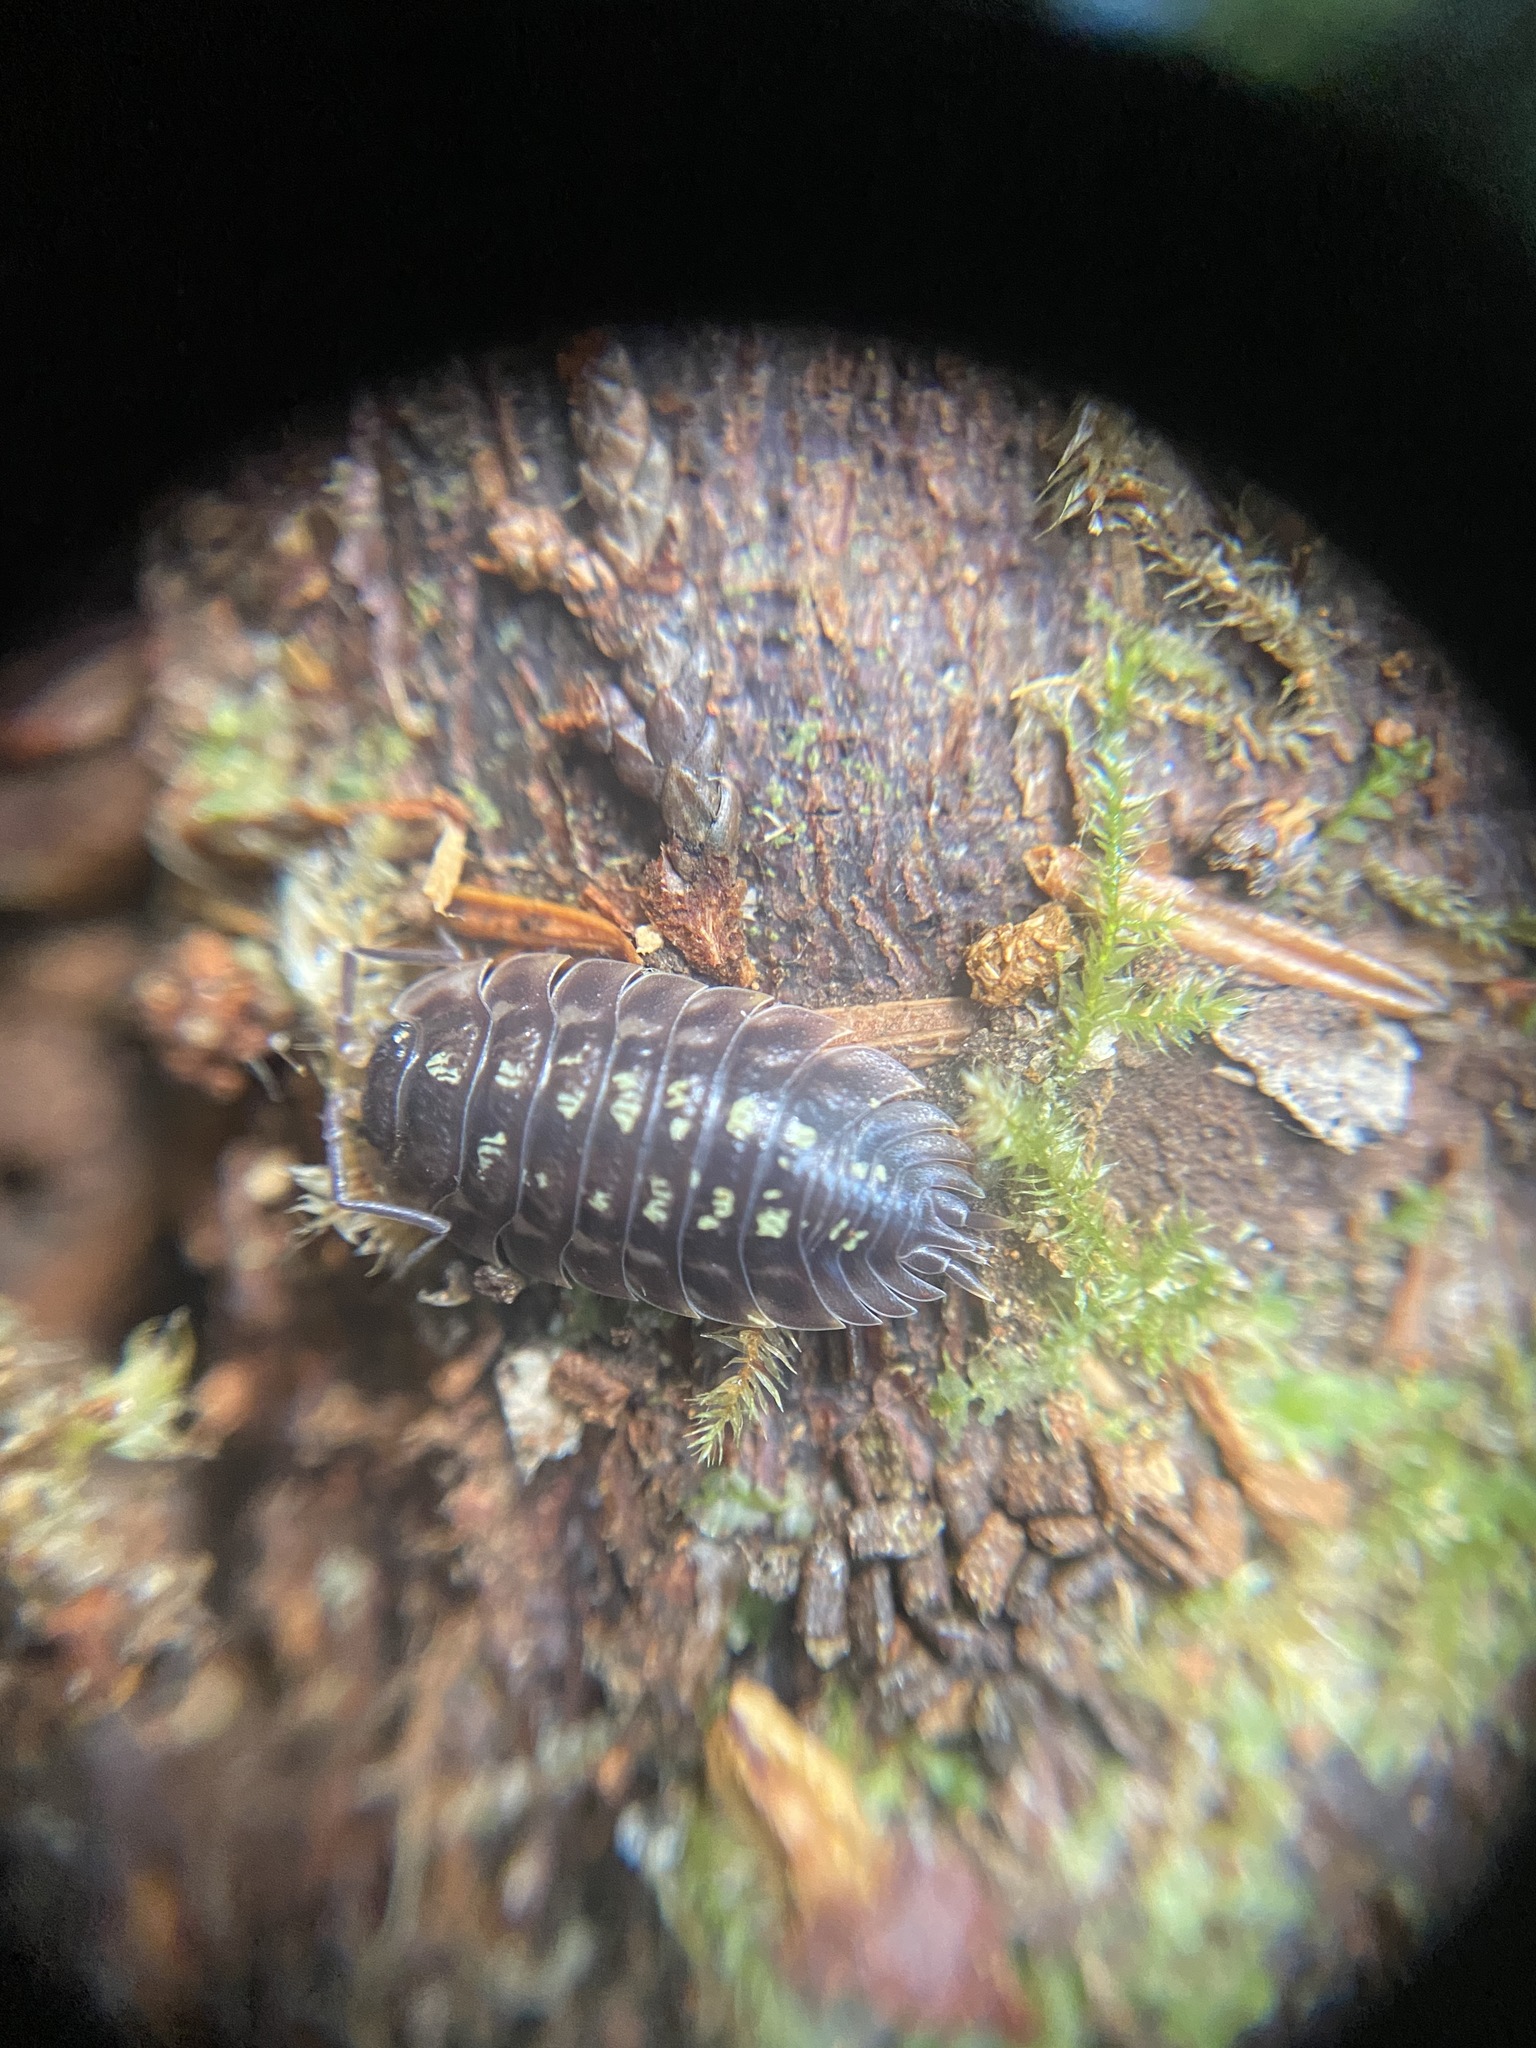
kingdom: Animalia
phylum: Arthropoda
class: Malacostraca
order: Isopoda
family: Oniscidae
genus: Oniscus
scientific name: Oniscus asellus
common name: Common shiny woodlouse
